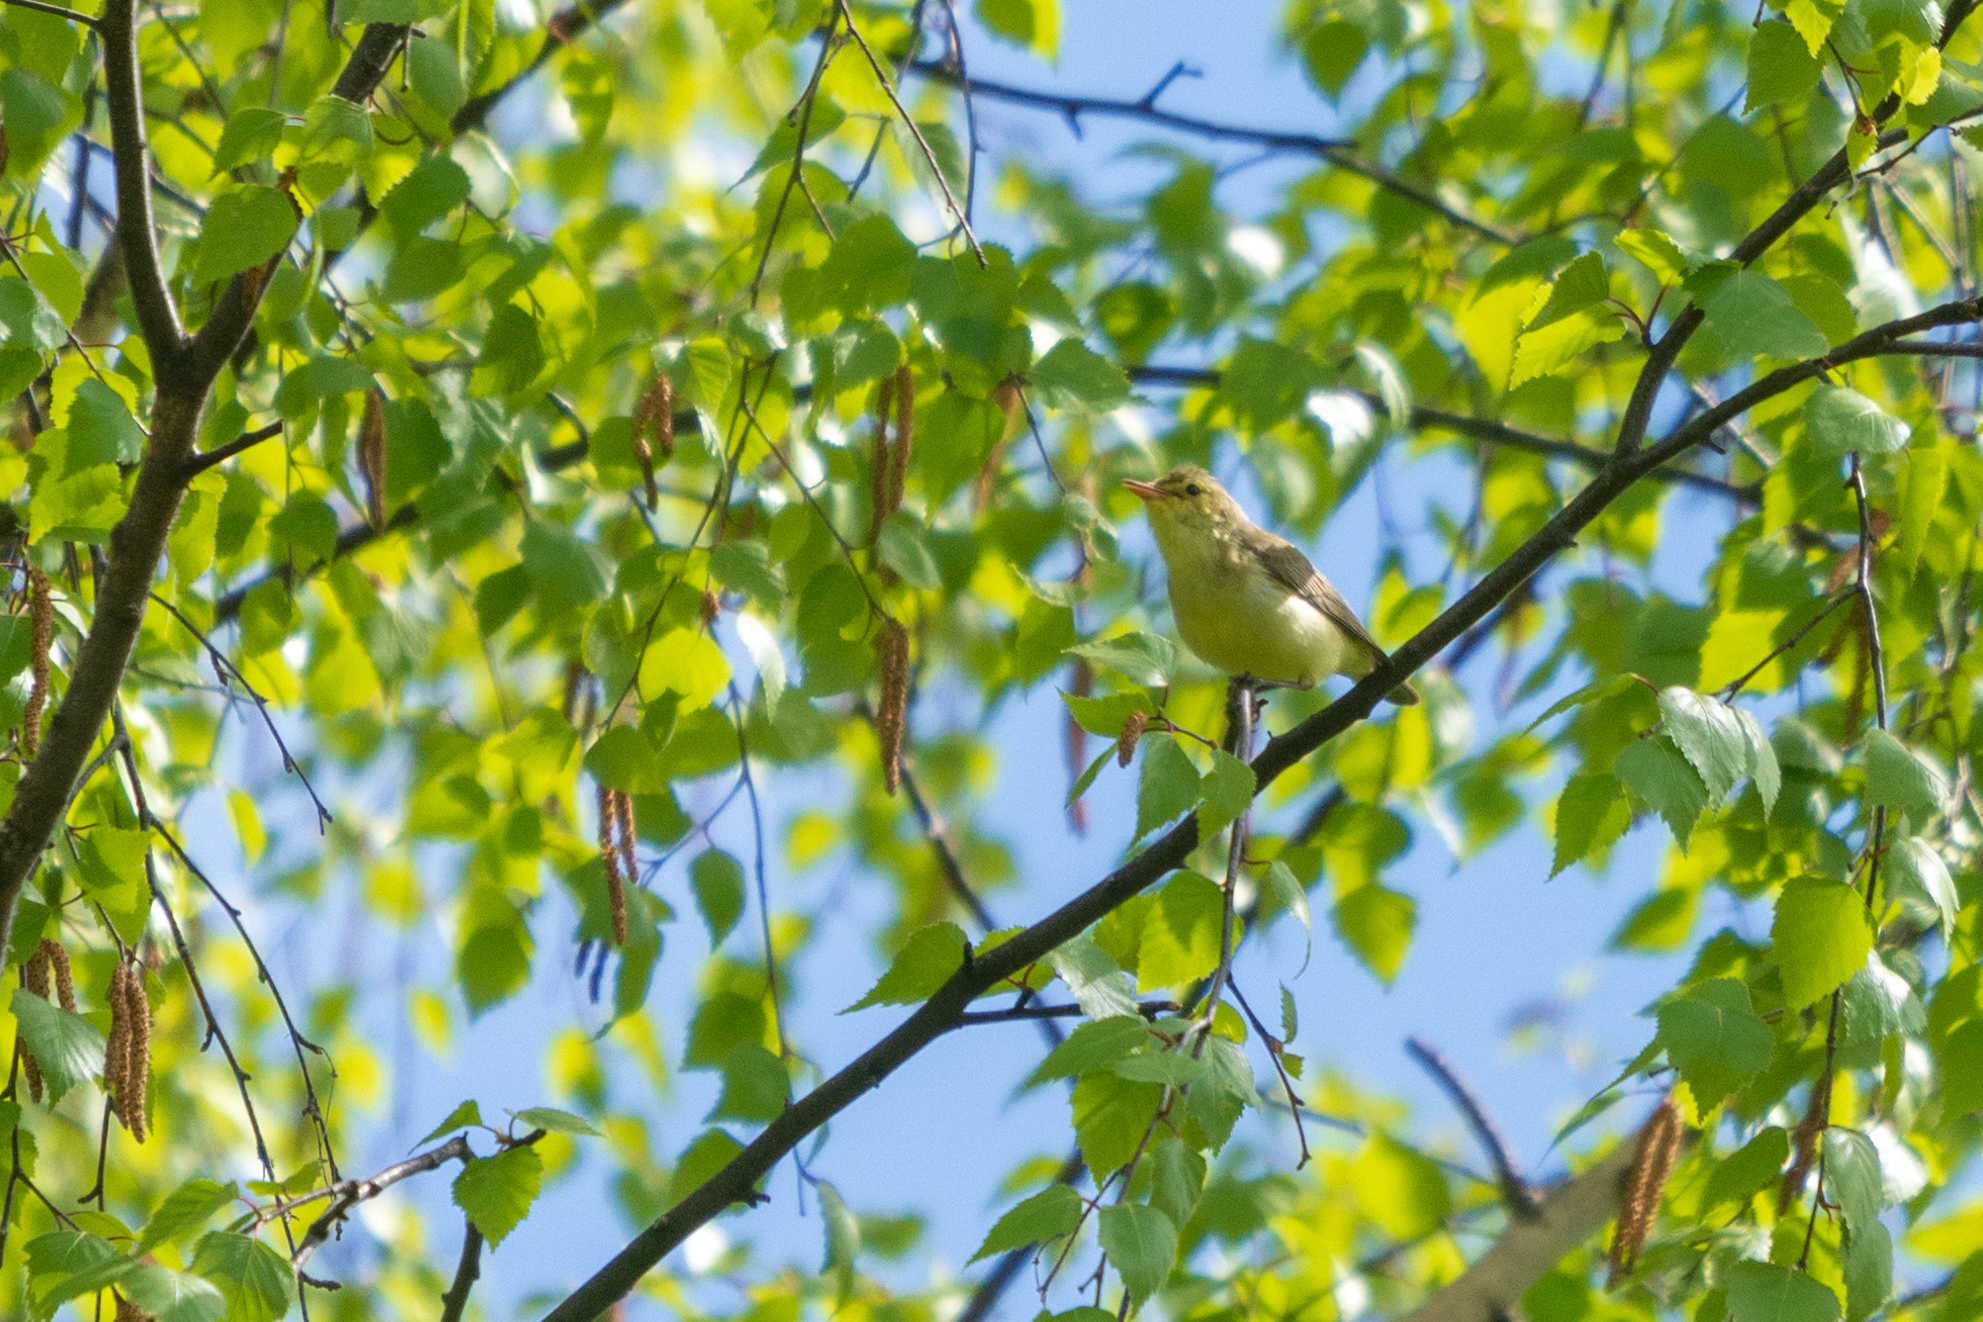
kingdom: Animalia
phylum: Chordata
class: Aves
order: Passeriformes
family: Acrocephalidae
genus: Hippolais
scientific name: Hippolais icterina
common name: Icterine warbler
